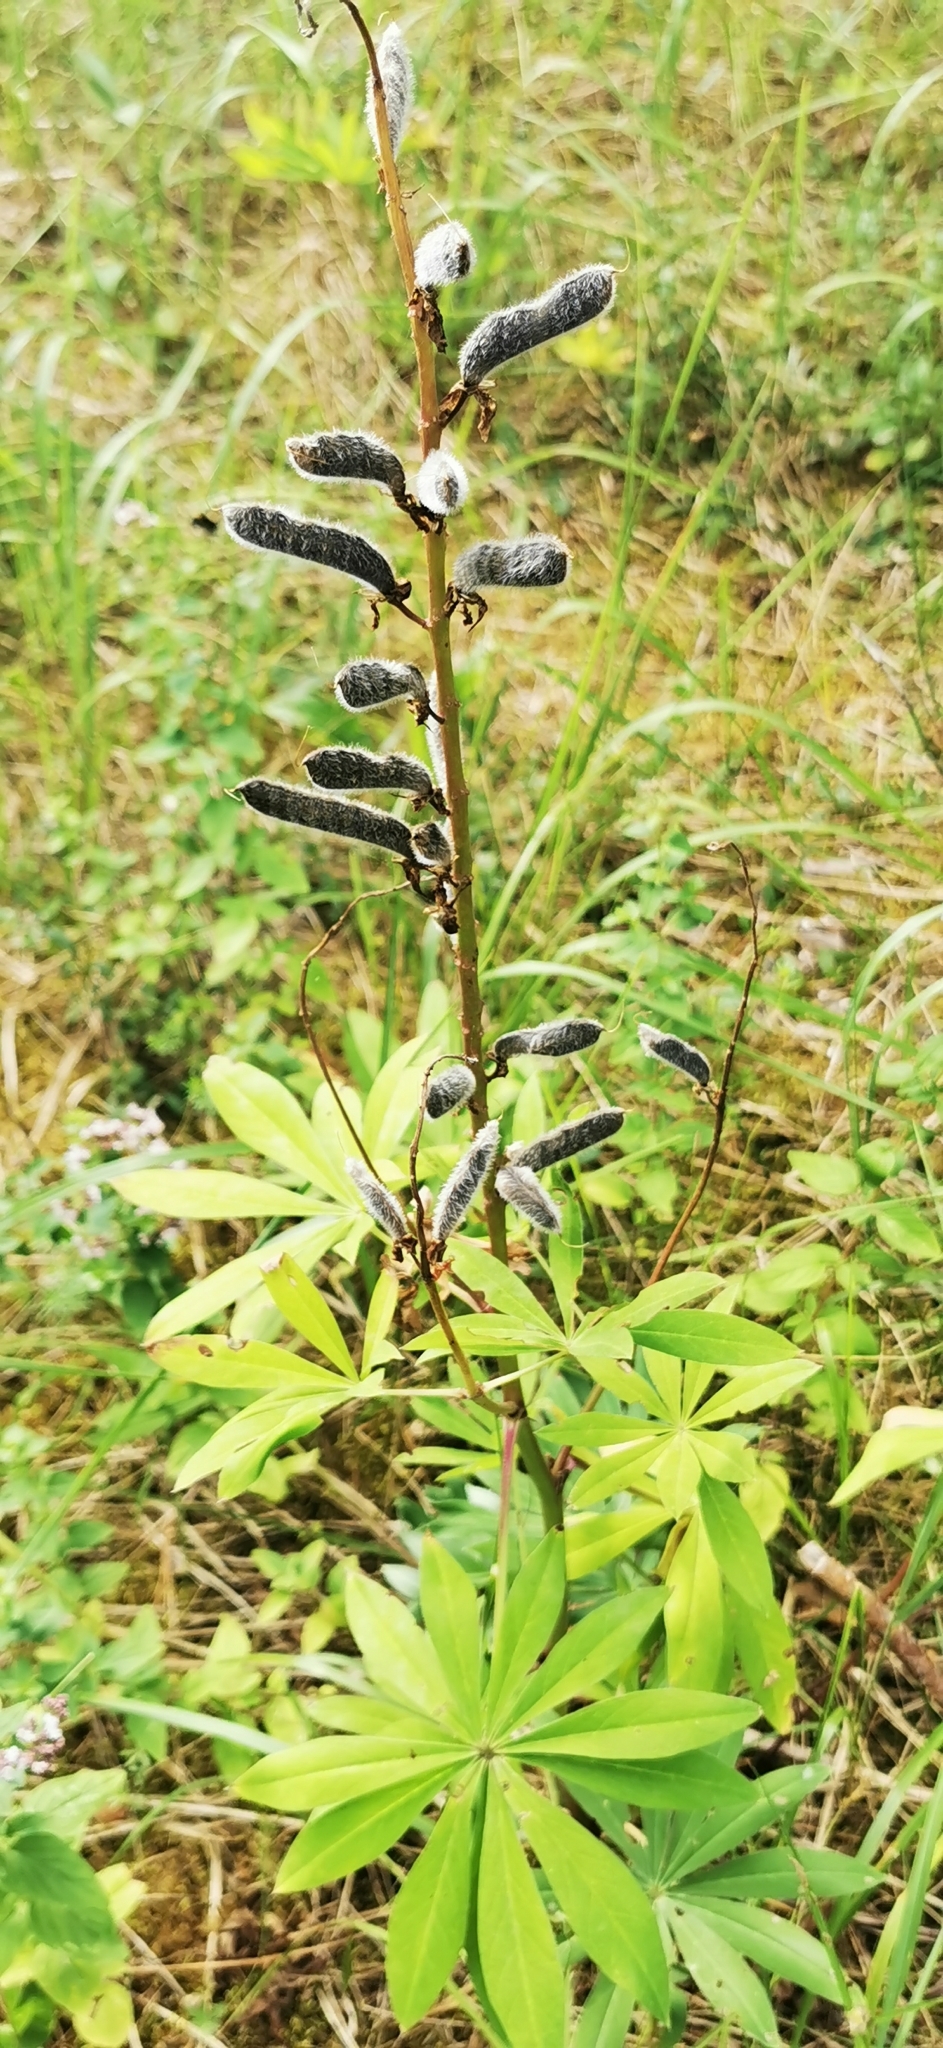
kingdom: Plantae
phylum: Tracheophyta
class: Magnoliopsida
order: Fabales
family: Fabaceae
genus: Lupinus
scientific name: Lupinus polyphyllus
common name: Garden lupin
